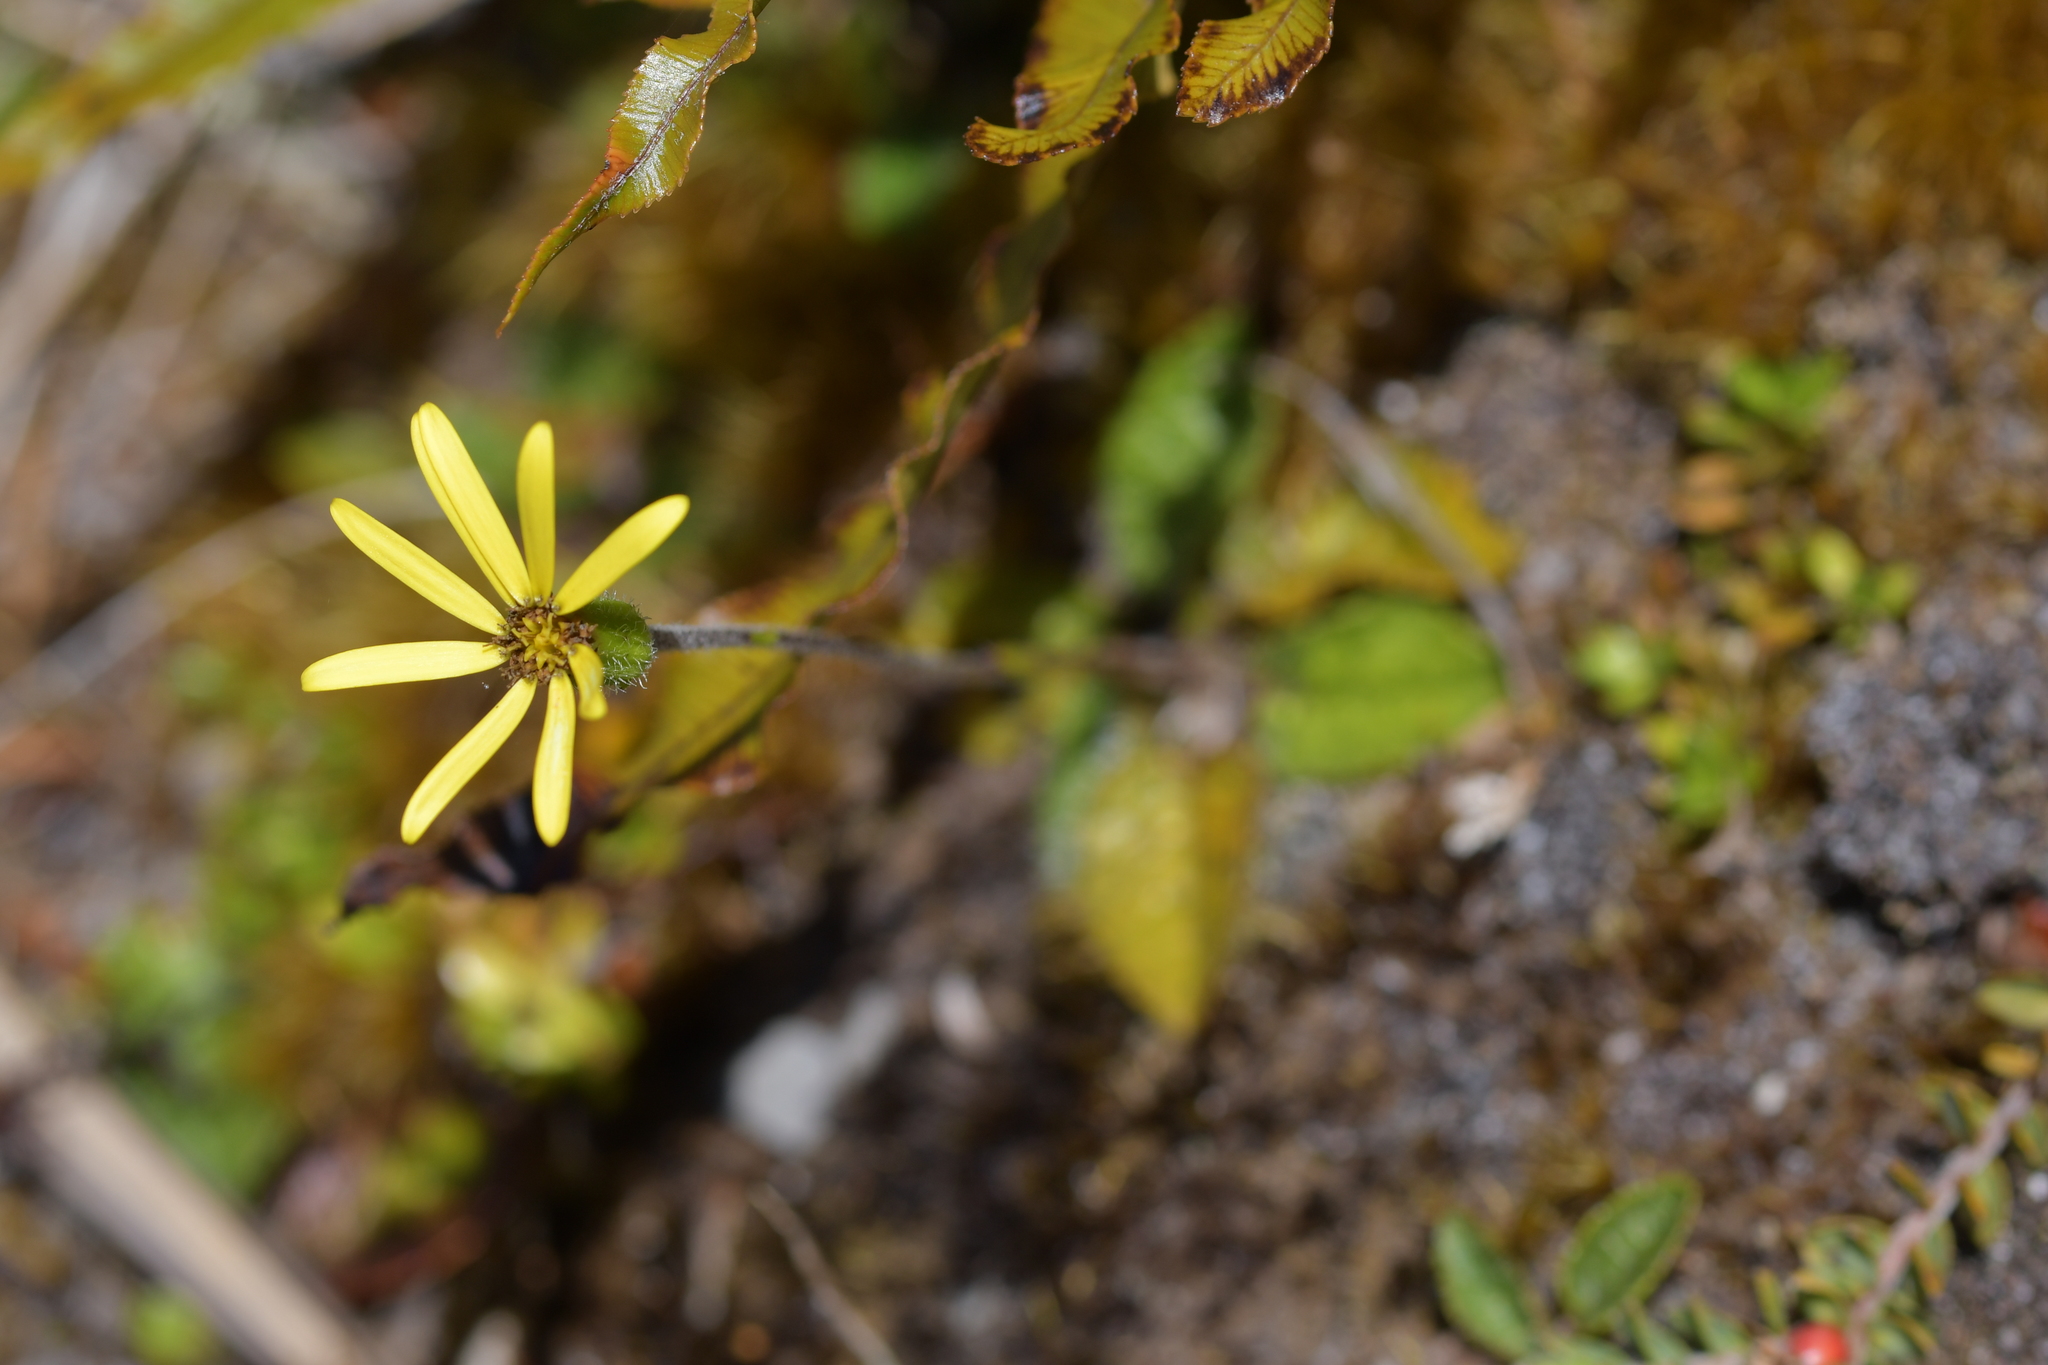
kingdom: Plantae
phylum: Tracheophyta
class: Magnoliopsida
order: Asterales
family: Asteraceae
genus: Brachyglottis
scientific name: Brachyglottis bellidioides
